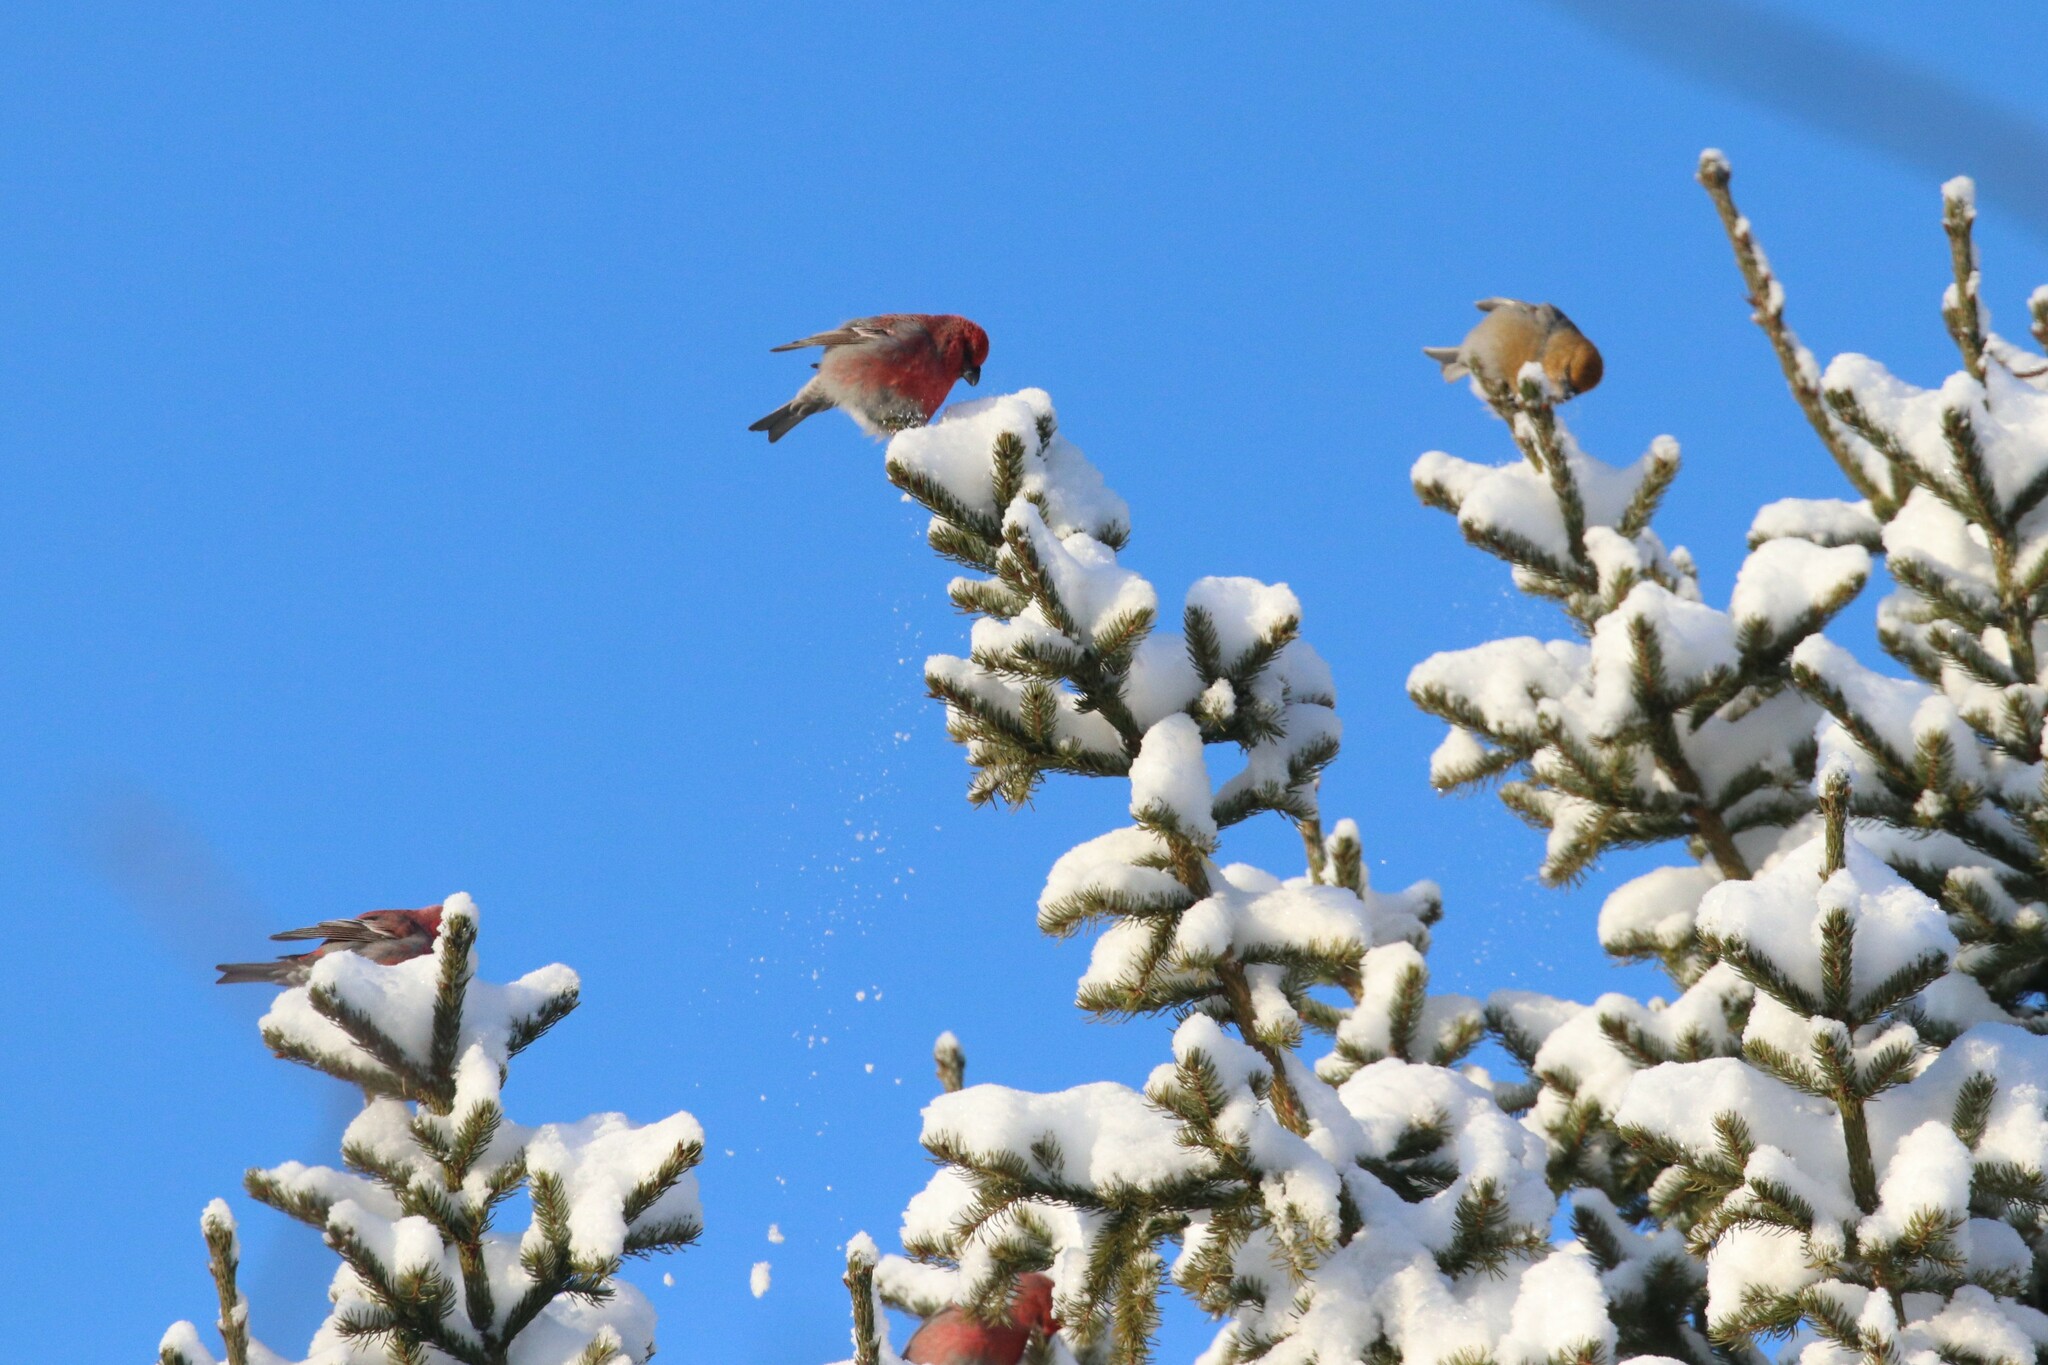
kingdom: Animalia
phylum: Chordata
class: Aves
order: Passeriformes
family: Fringillidae
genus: Pinicola
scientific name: Pinicola enucleator
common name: Pine grosbeak
